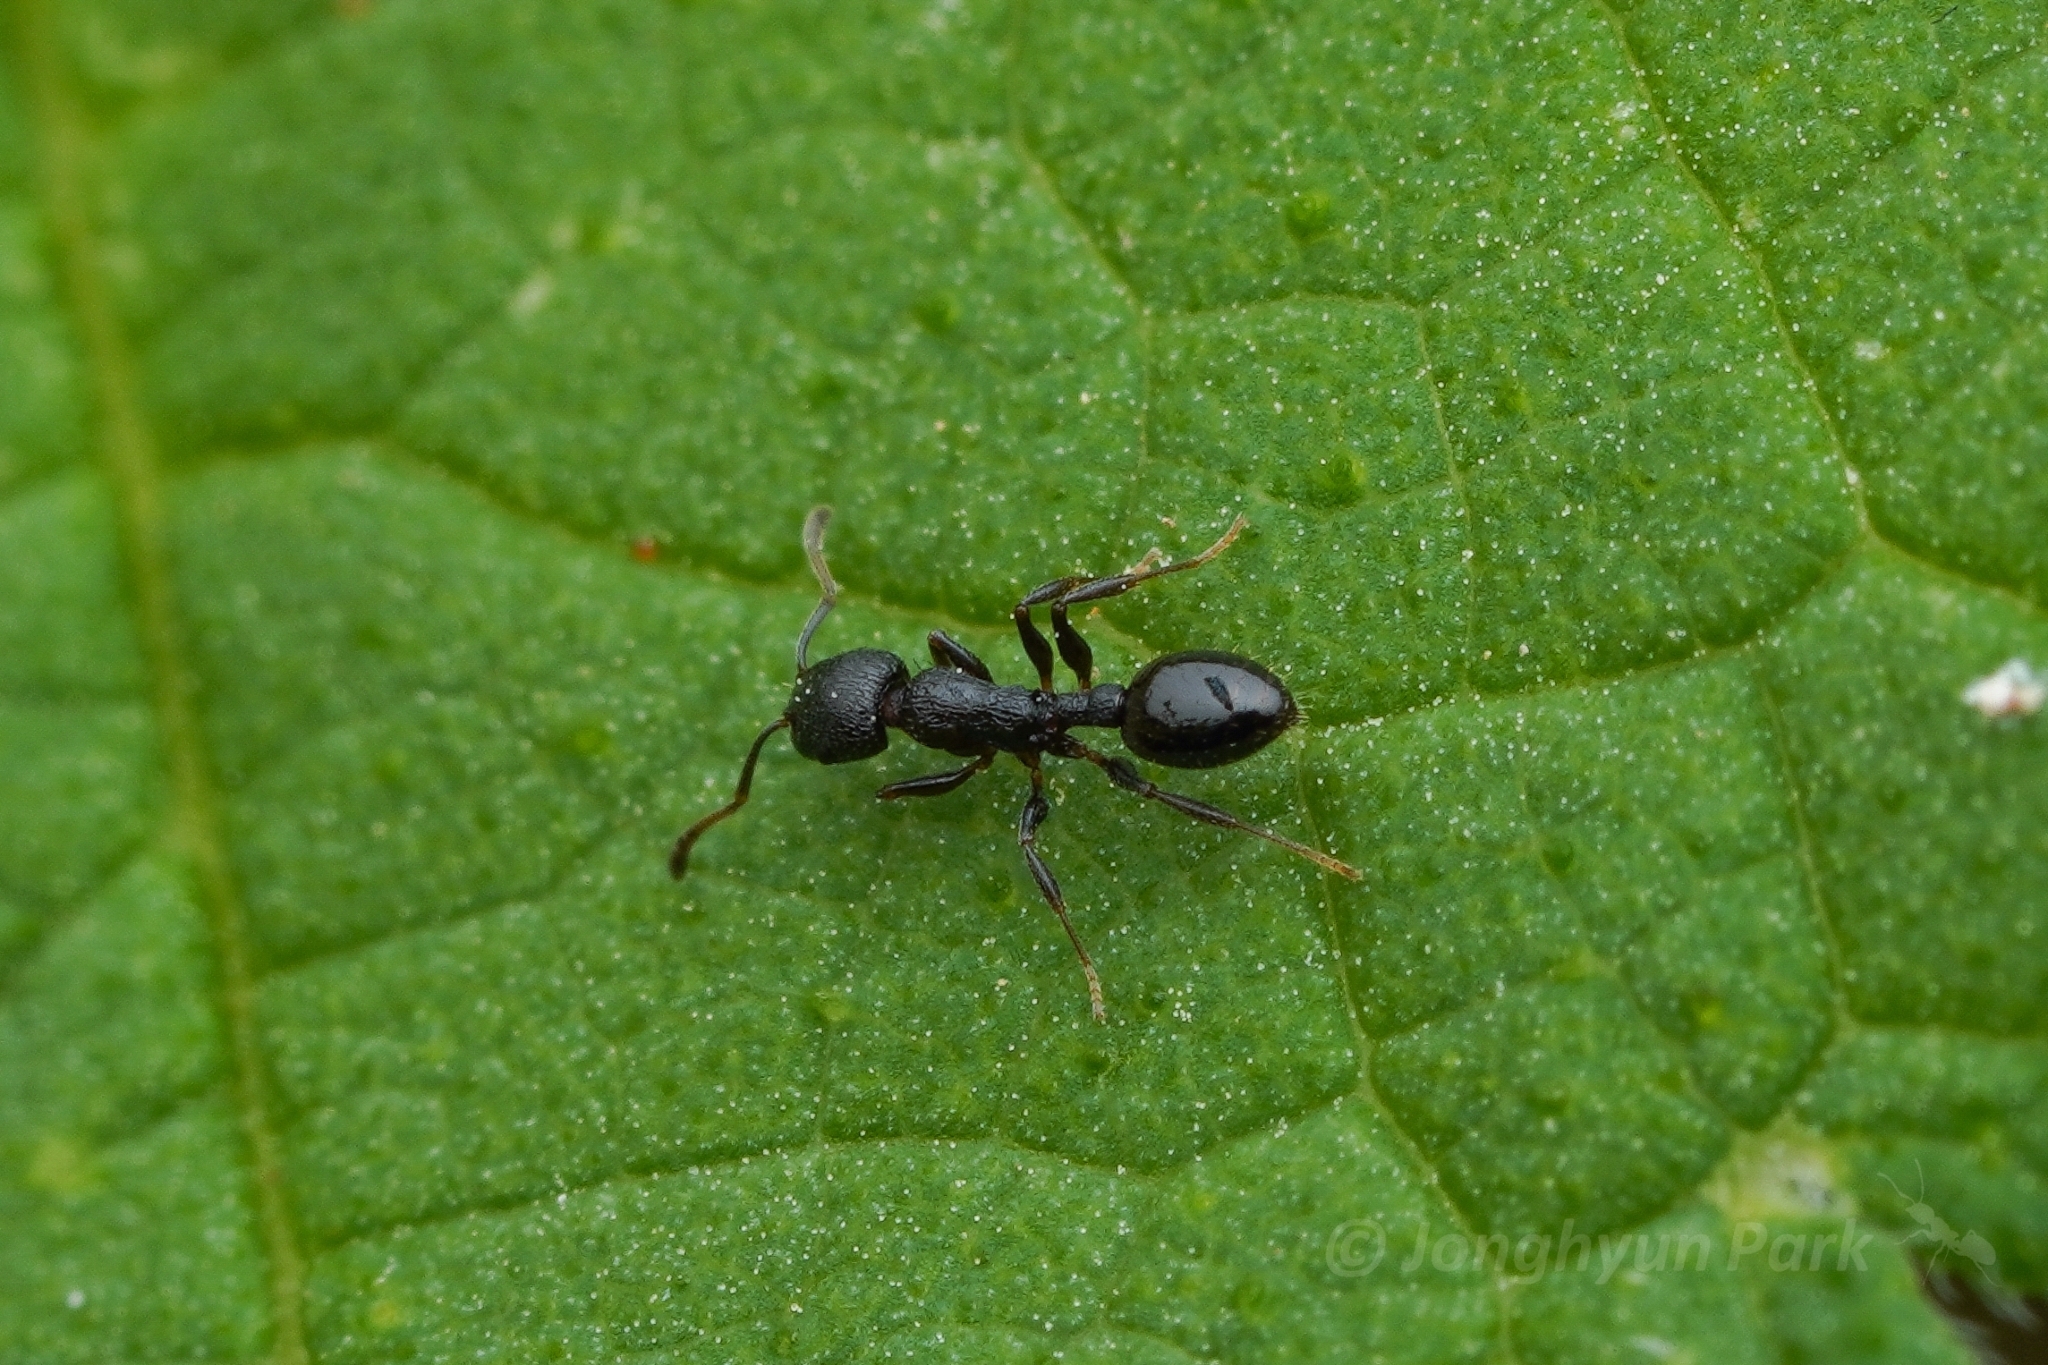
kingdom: Animalia
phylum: Arthropoda
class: Insecta
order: Hymenoptera
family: Formicidae
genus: Temnothorax
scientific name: Temnothorax
